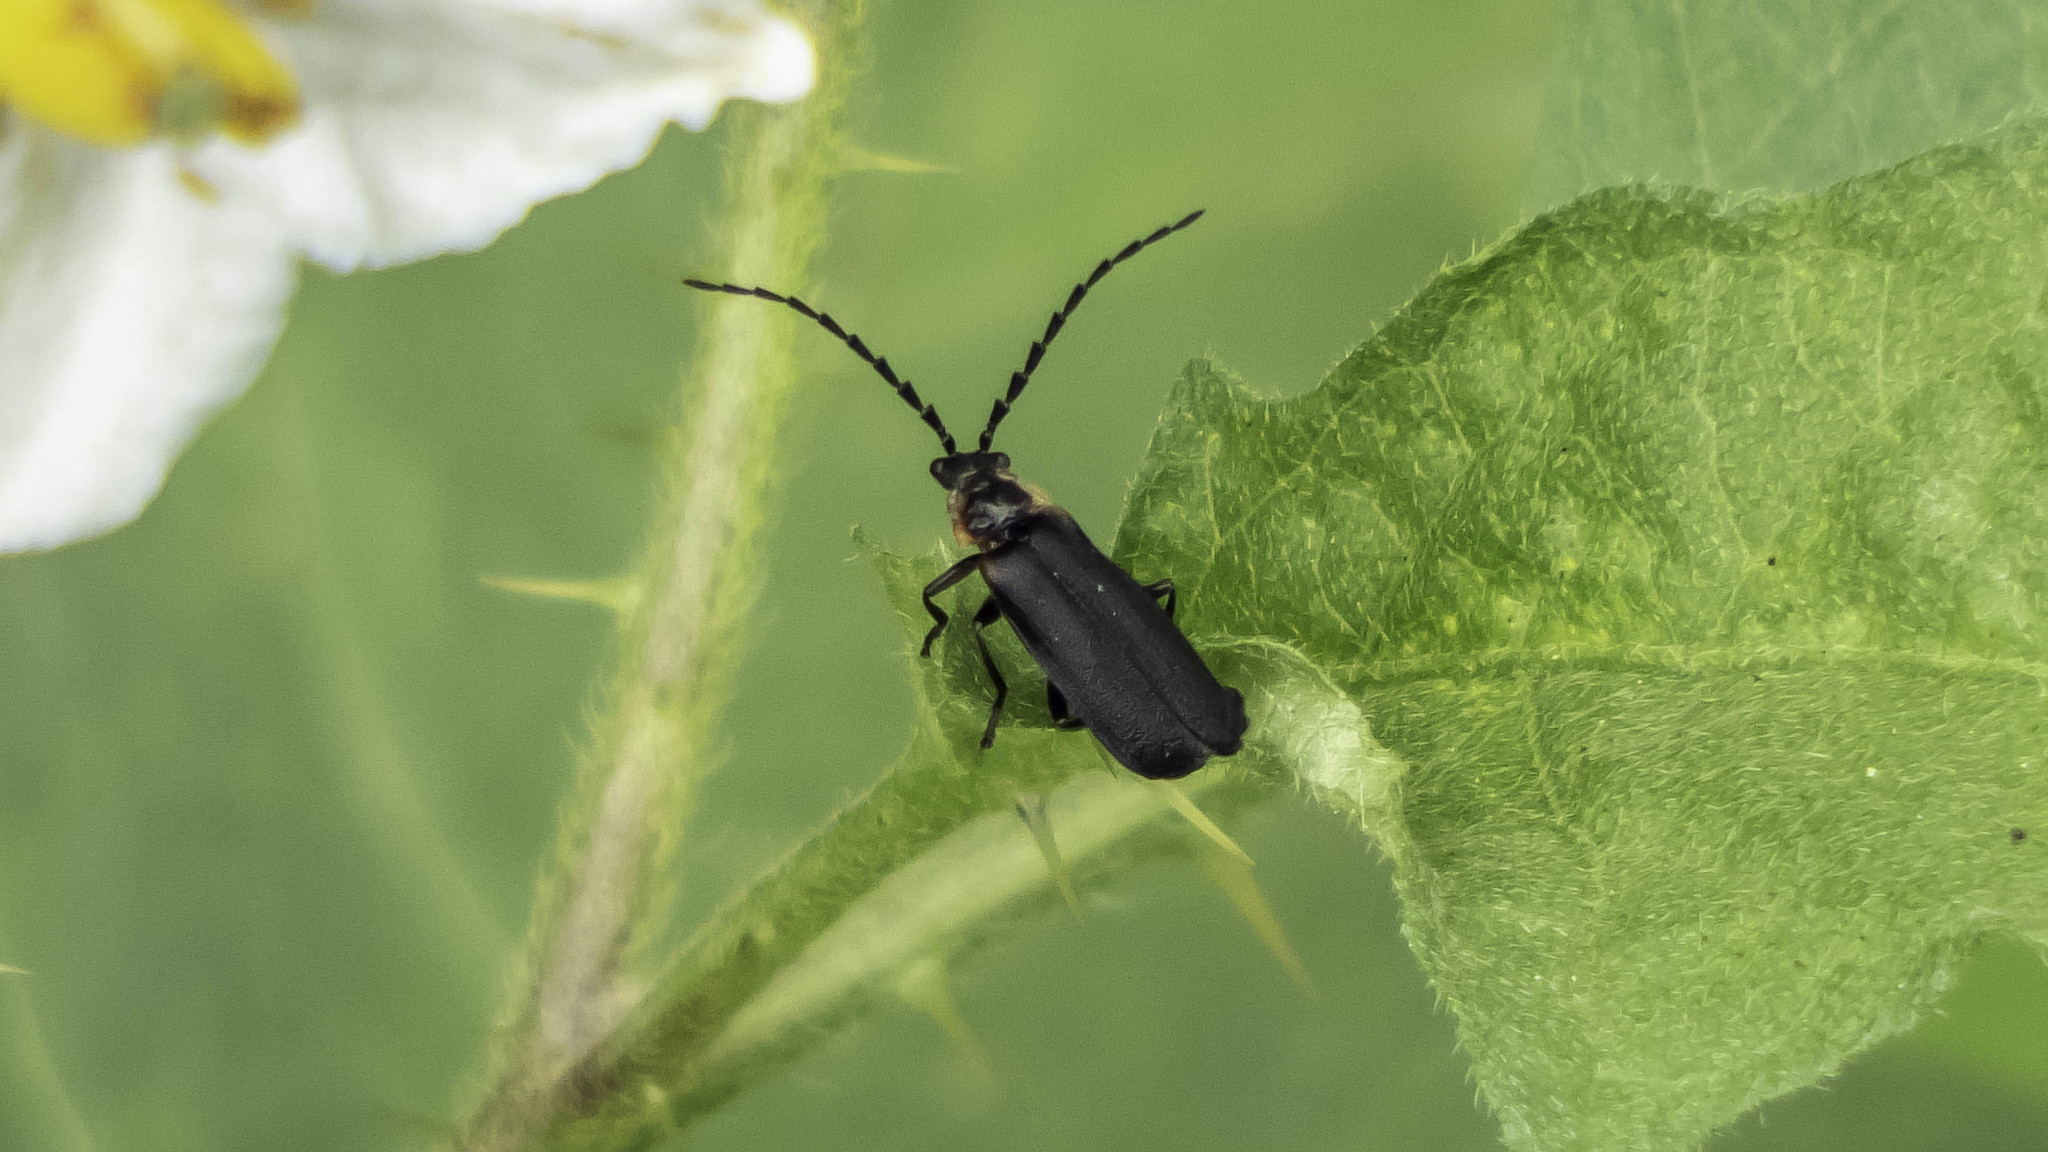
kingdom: Animalia
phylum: Arthropoda
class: Insecta
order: Coleoptera
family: Cantharidae
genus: Polemius
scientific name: Polemius laticornis
